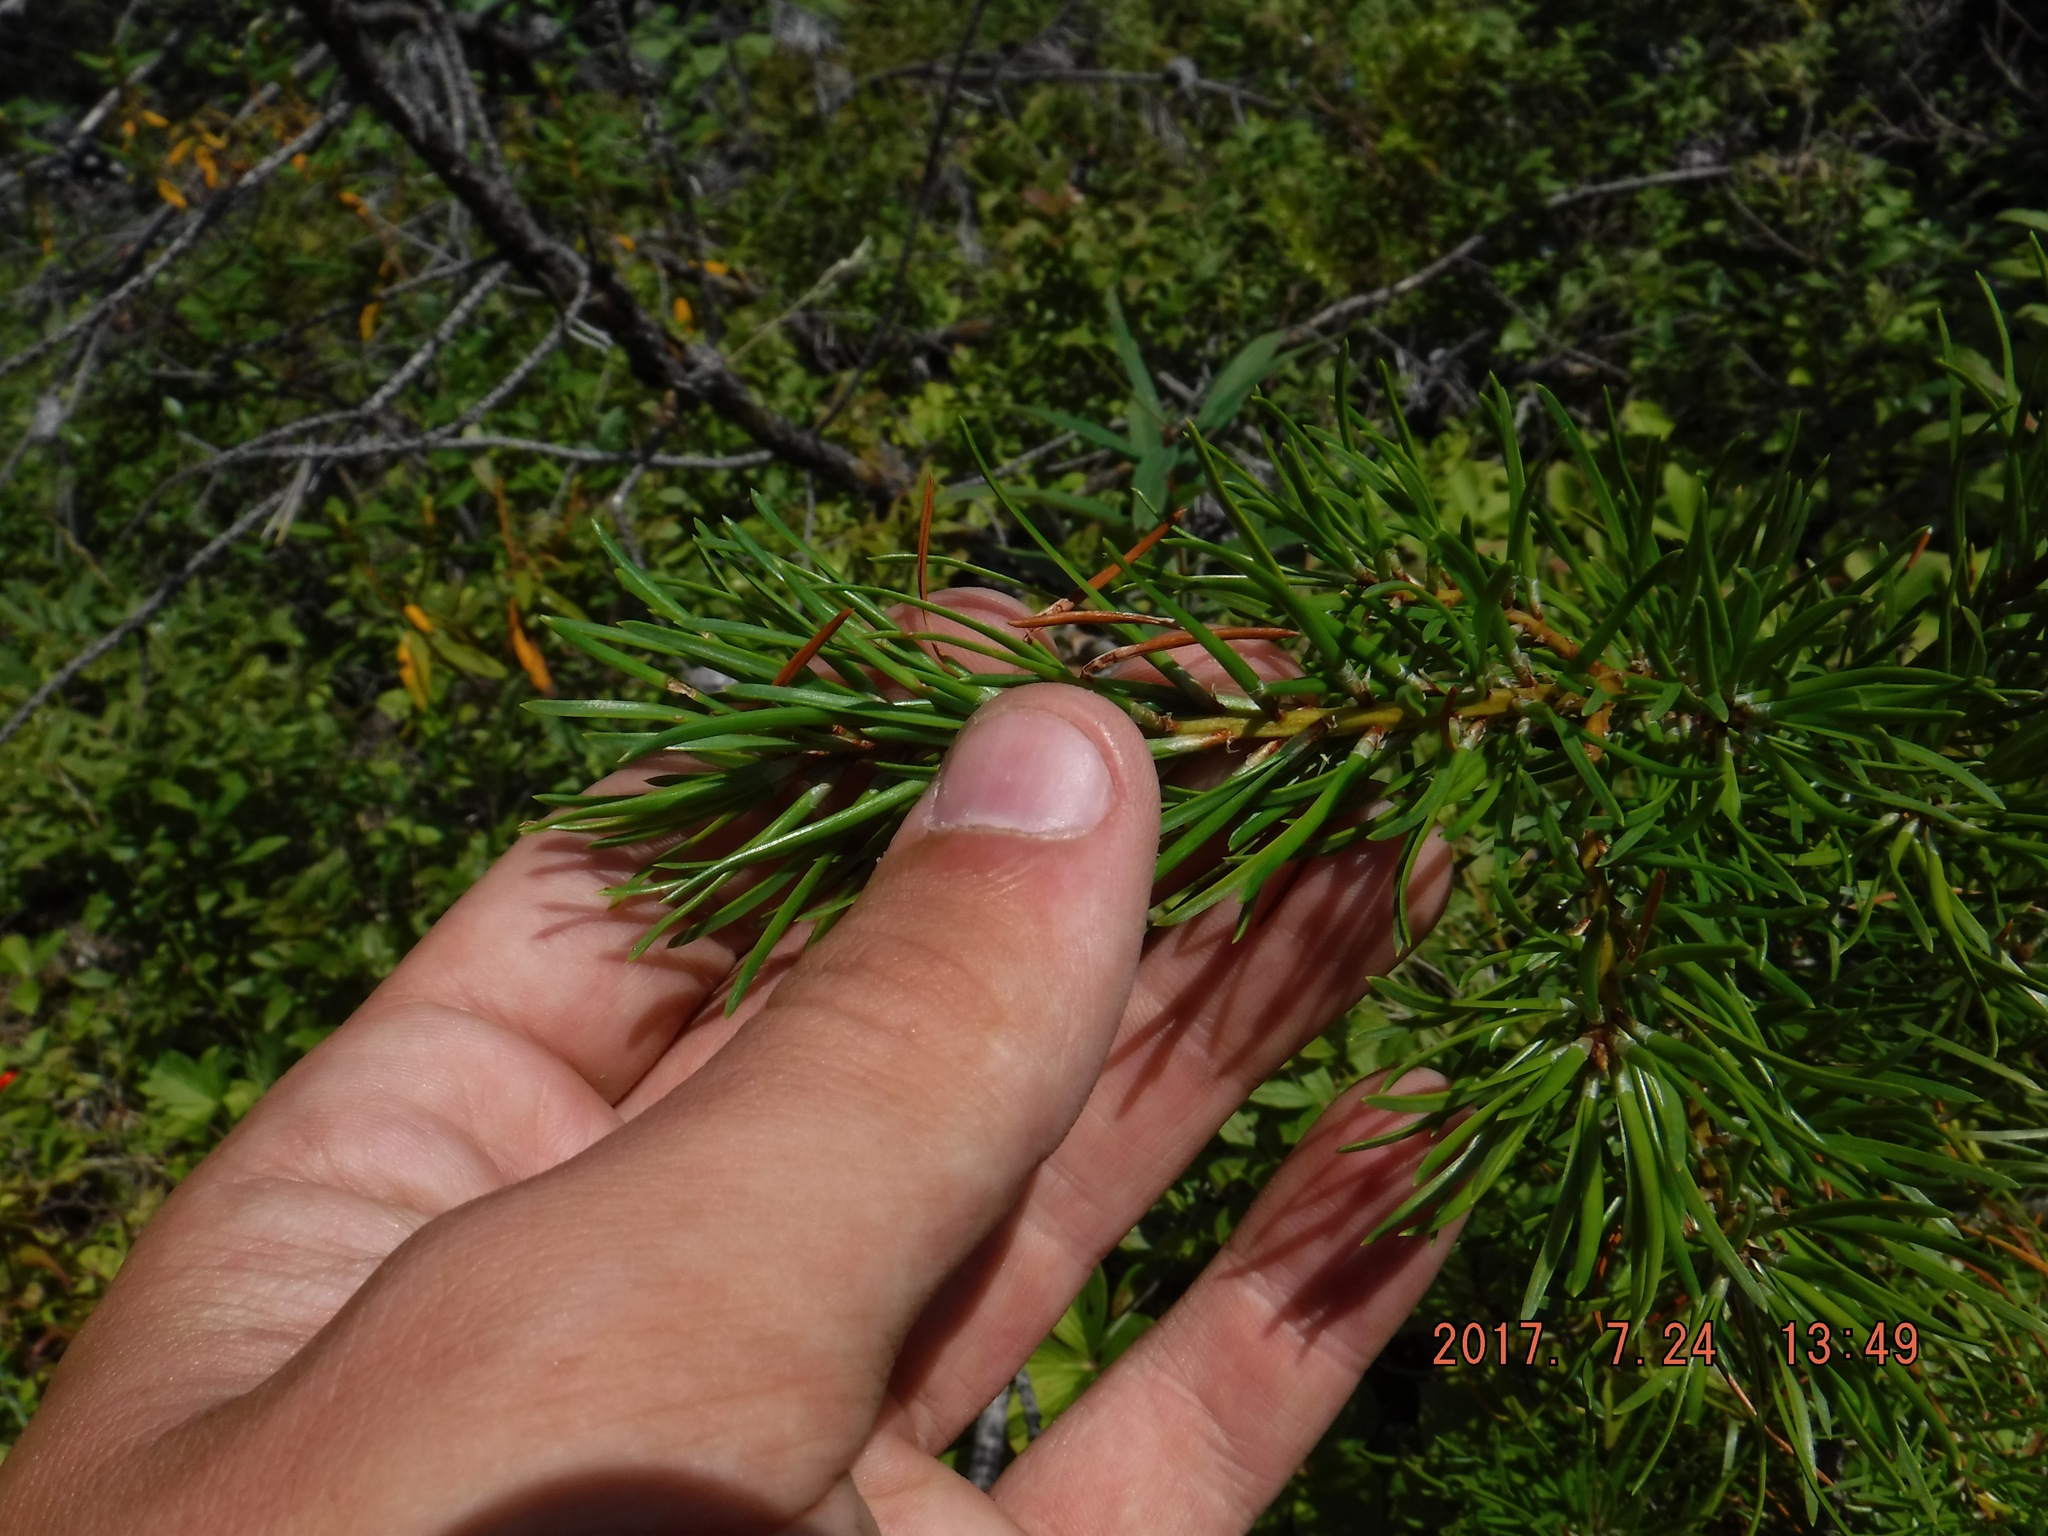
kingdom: Plantae
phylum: Tracheophyta
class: Pinopsida
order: Pinales
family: Pinaceae
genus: Pinus
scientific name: Pinus banksiana
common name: Jack pine
